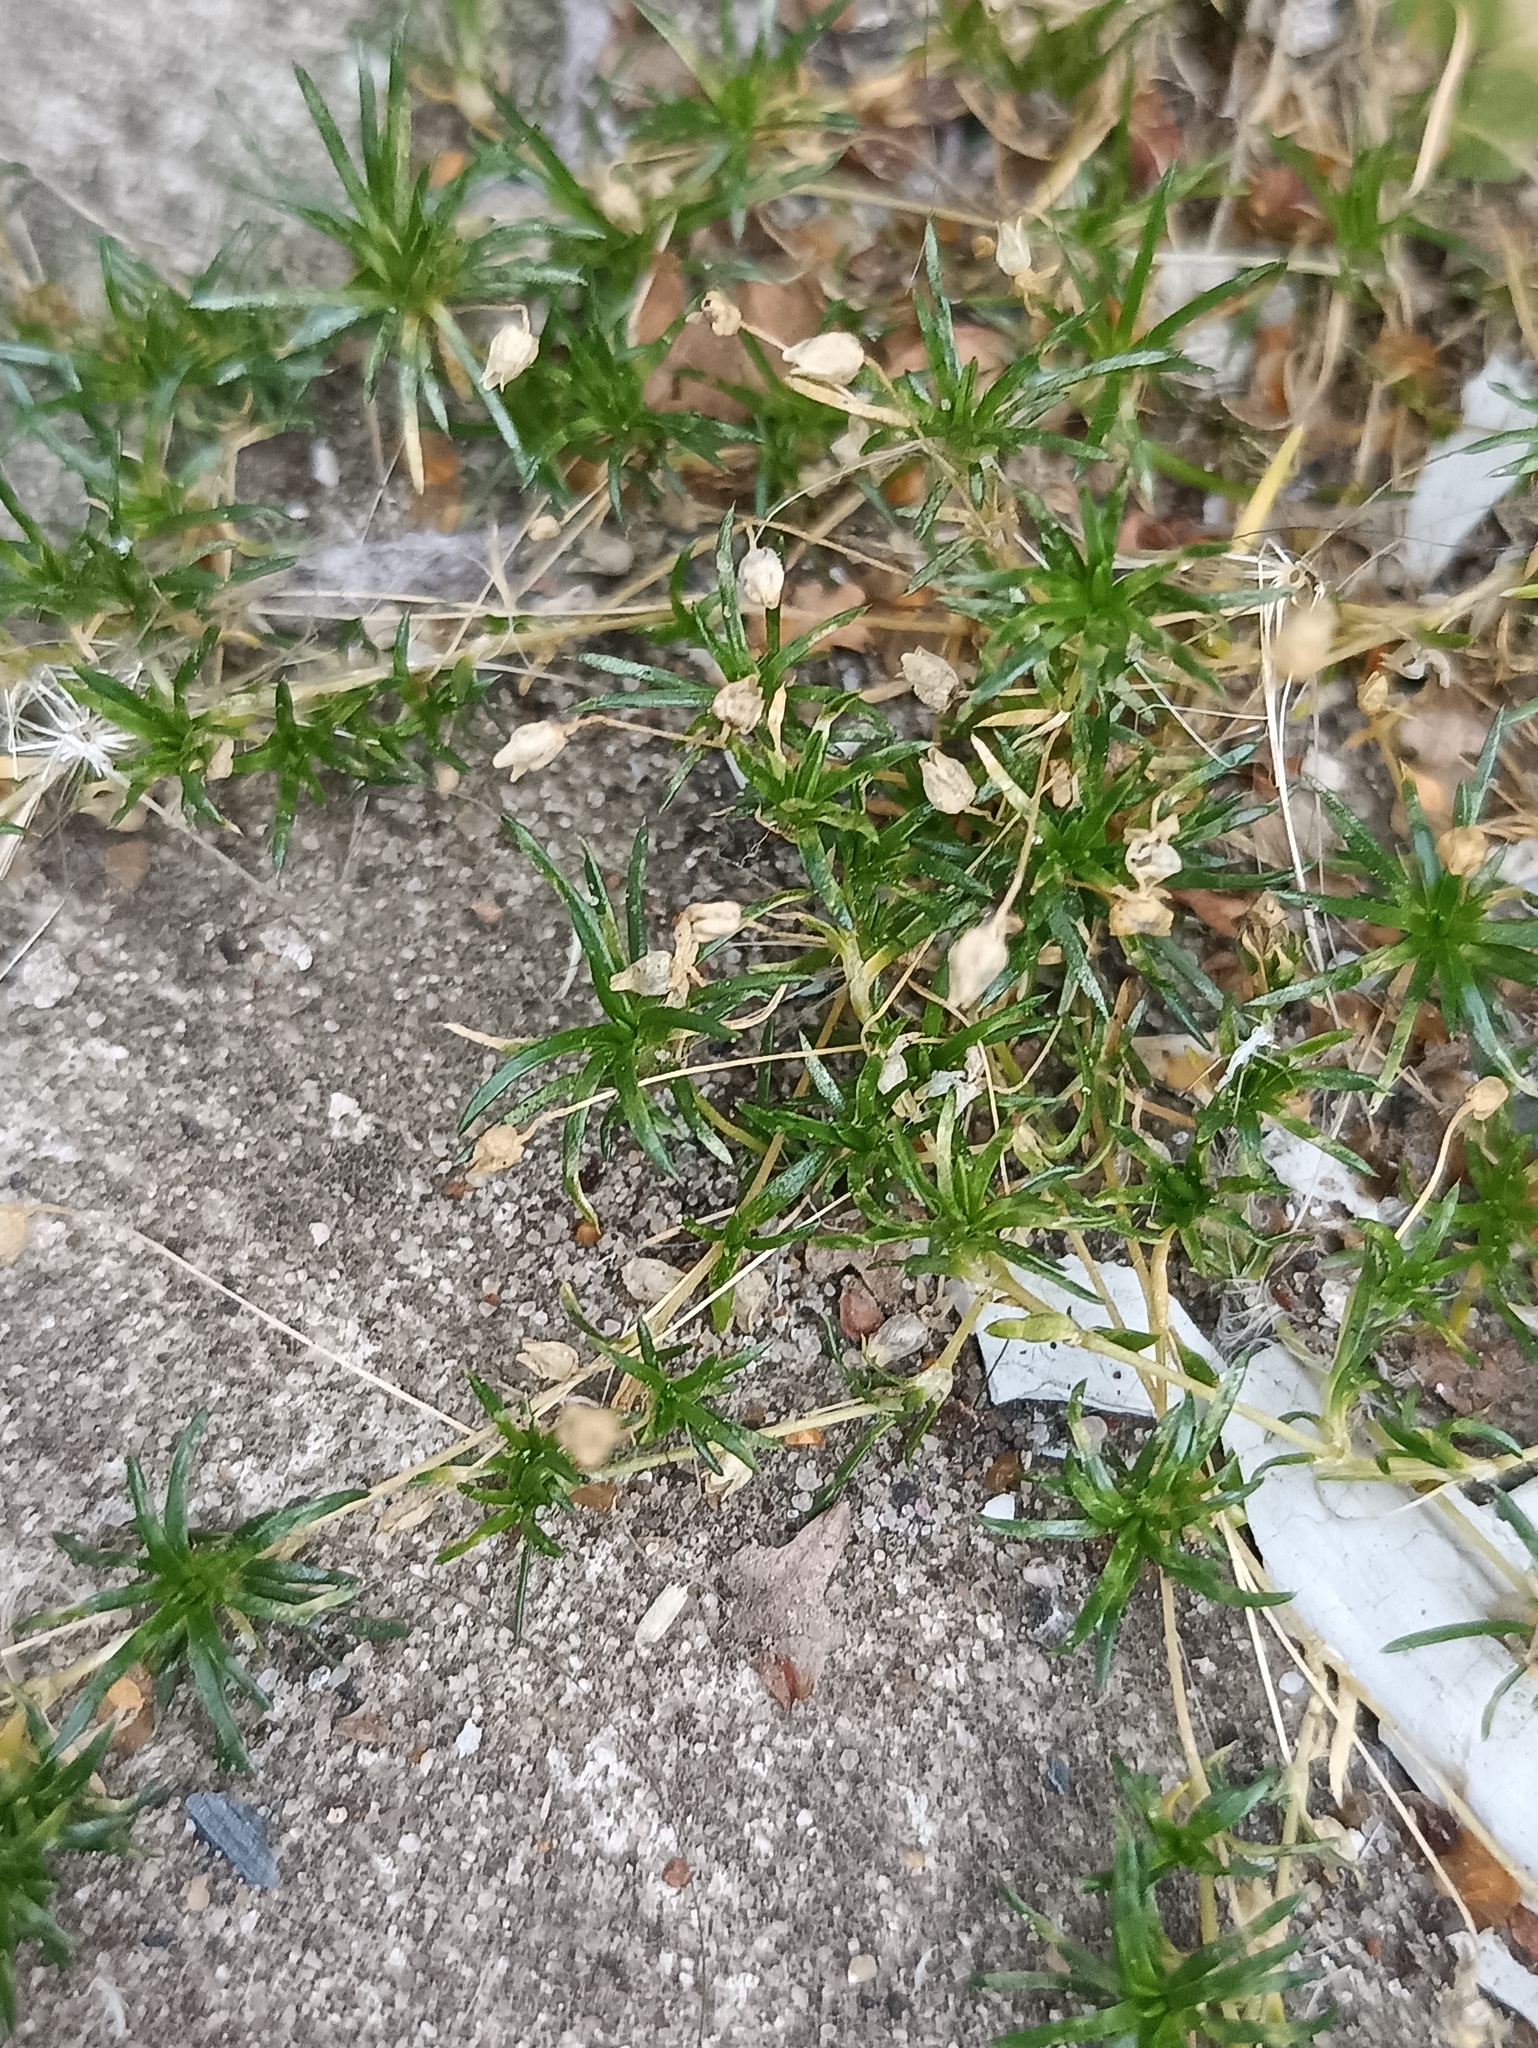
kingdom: Plantae
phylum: Tracheophyta
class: Magnoliopsida
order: Caryophyllales
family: Caryophyllaceae
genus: Sagina
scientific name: Sagina procumbens
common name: Procumbent pearlwort
